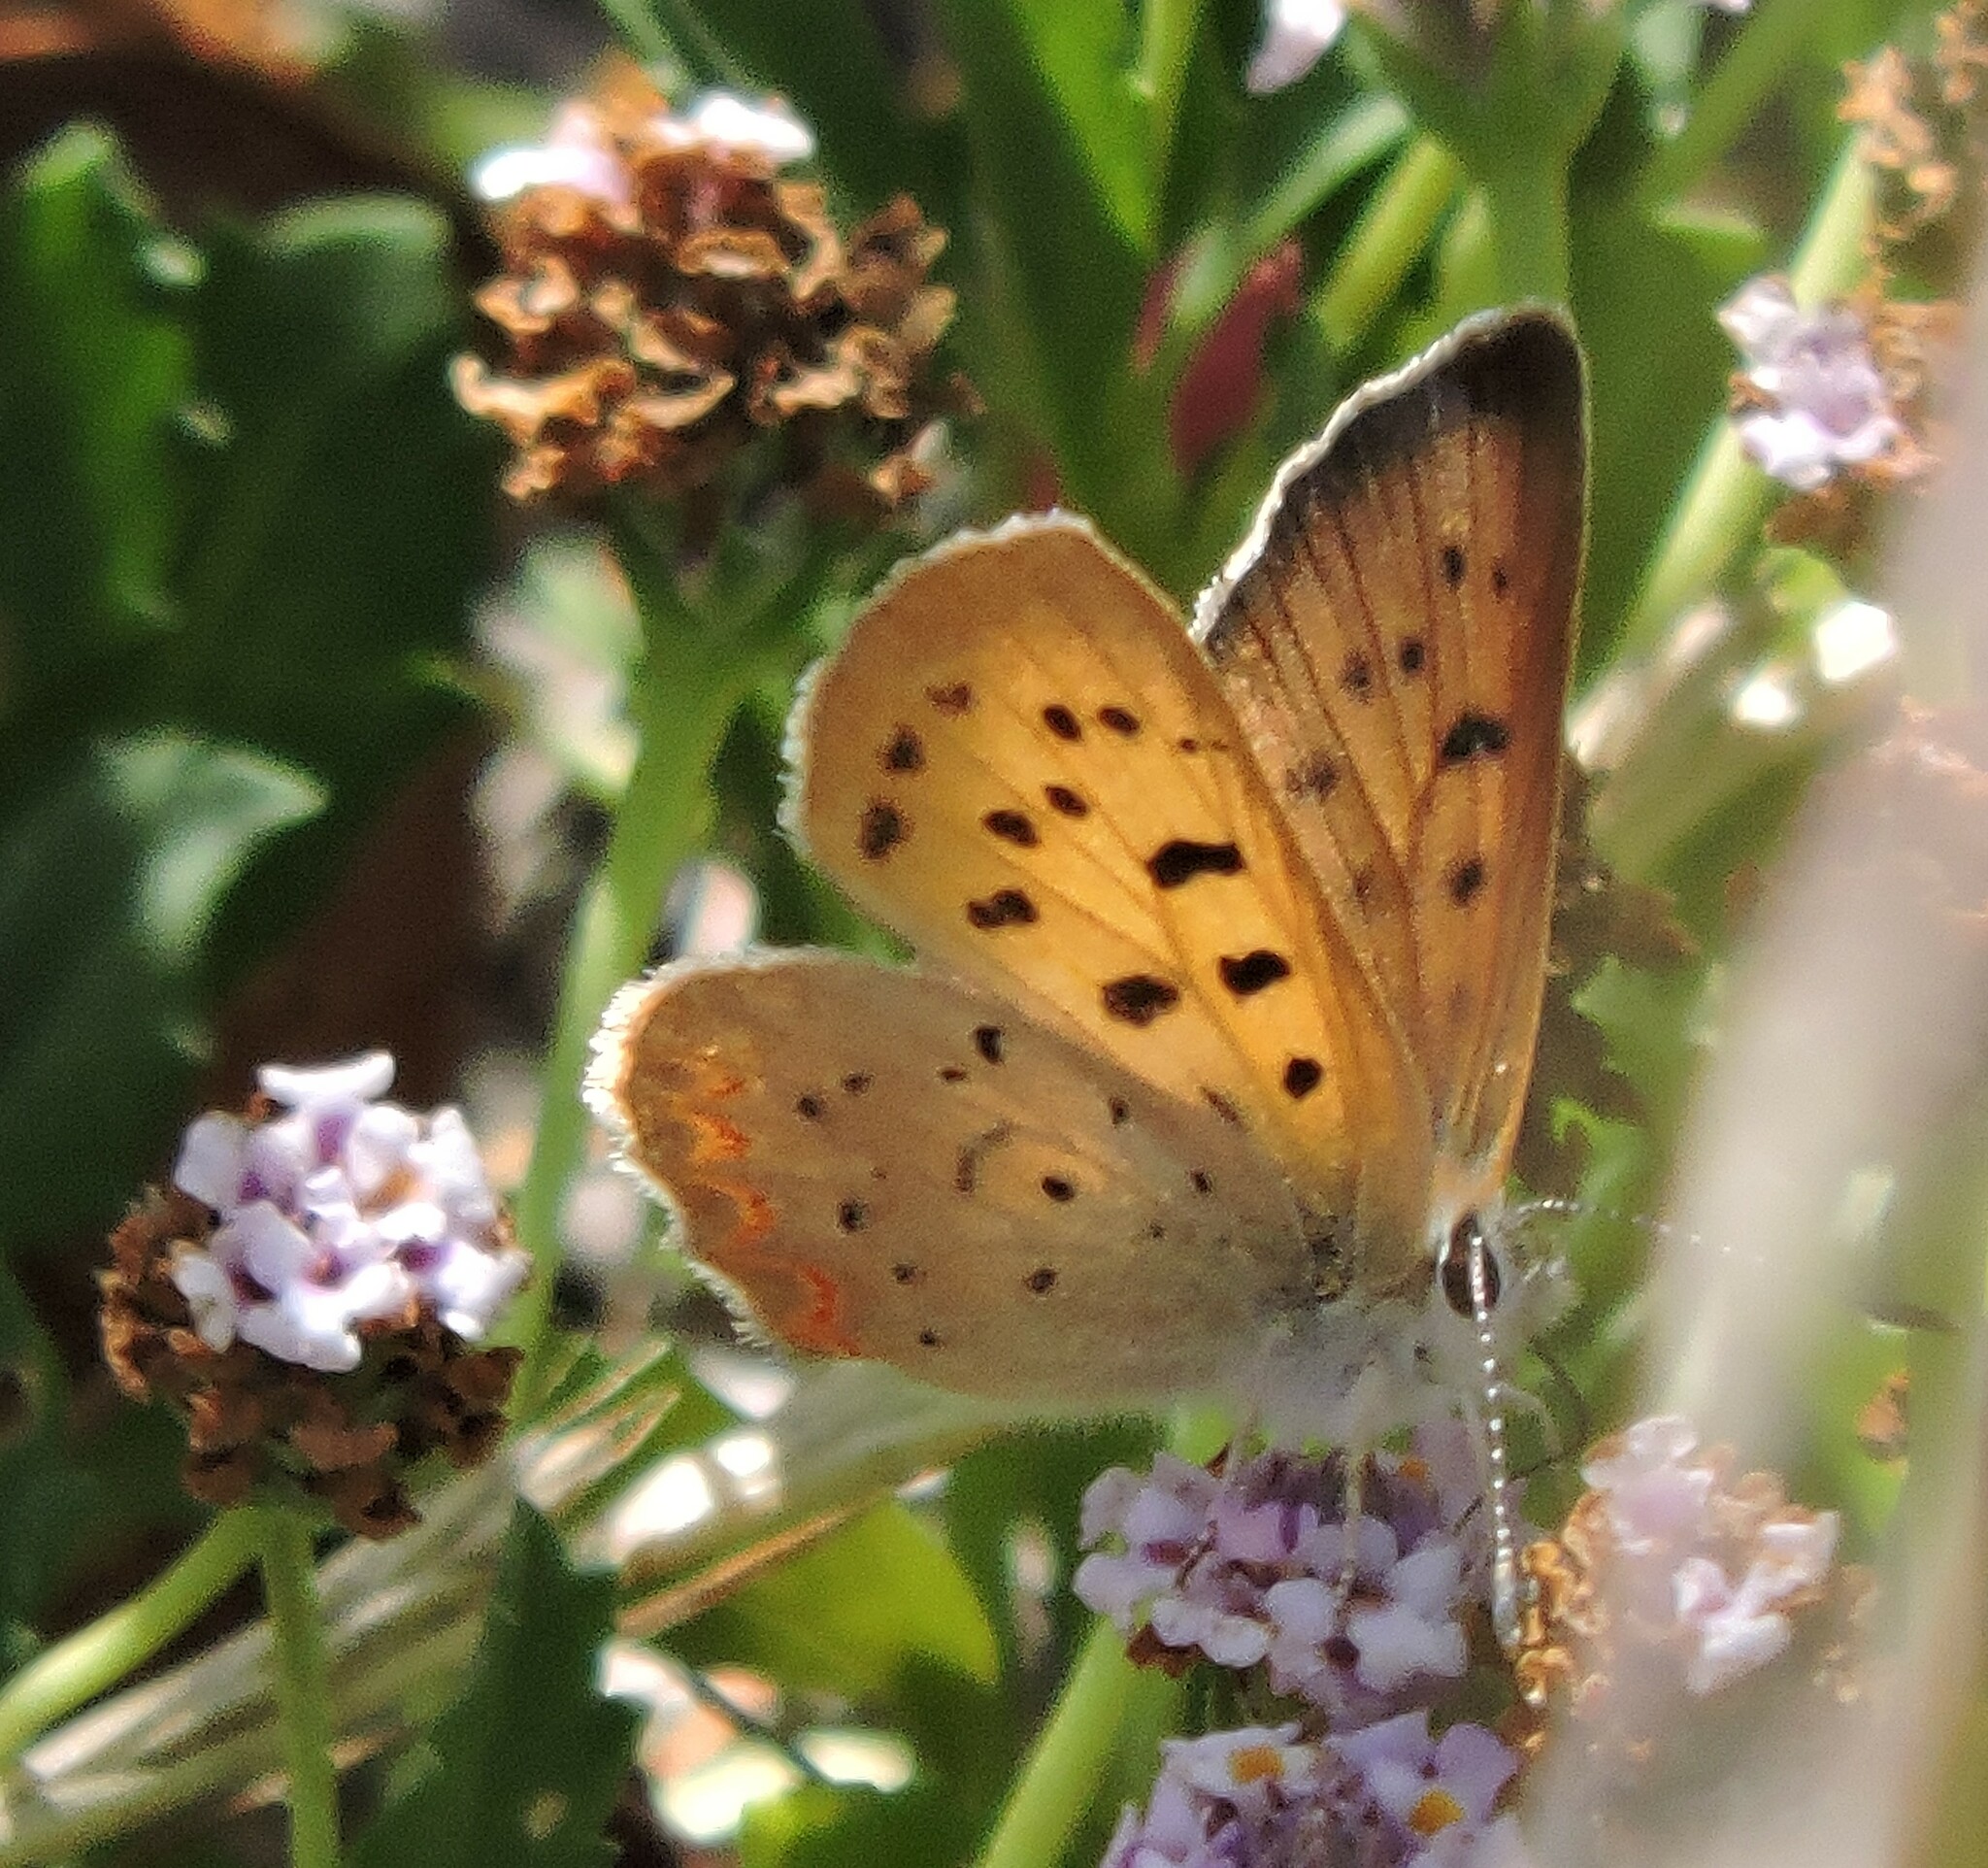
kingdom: Animalia
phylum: Arthropoda
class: Insecta
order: Lepidoptera
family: Lycaenidae
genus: Tharsalea
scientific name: Tharsalea helloides
